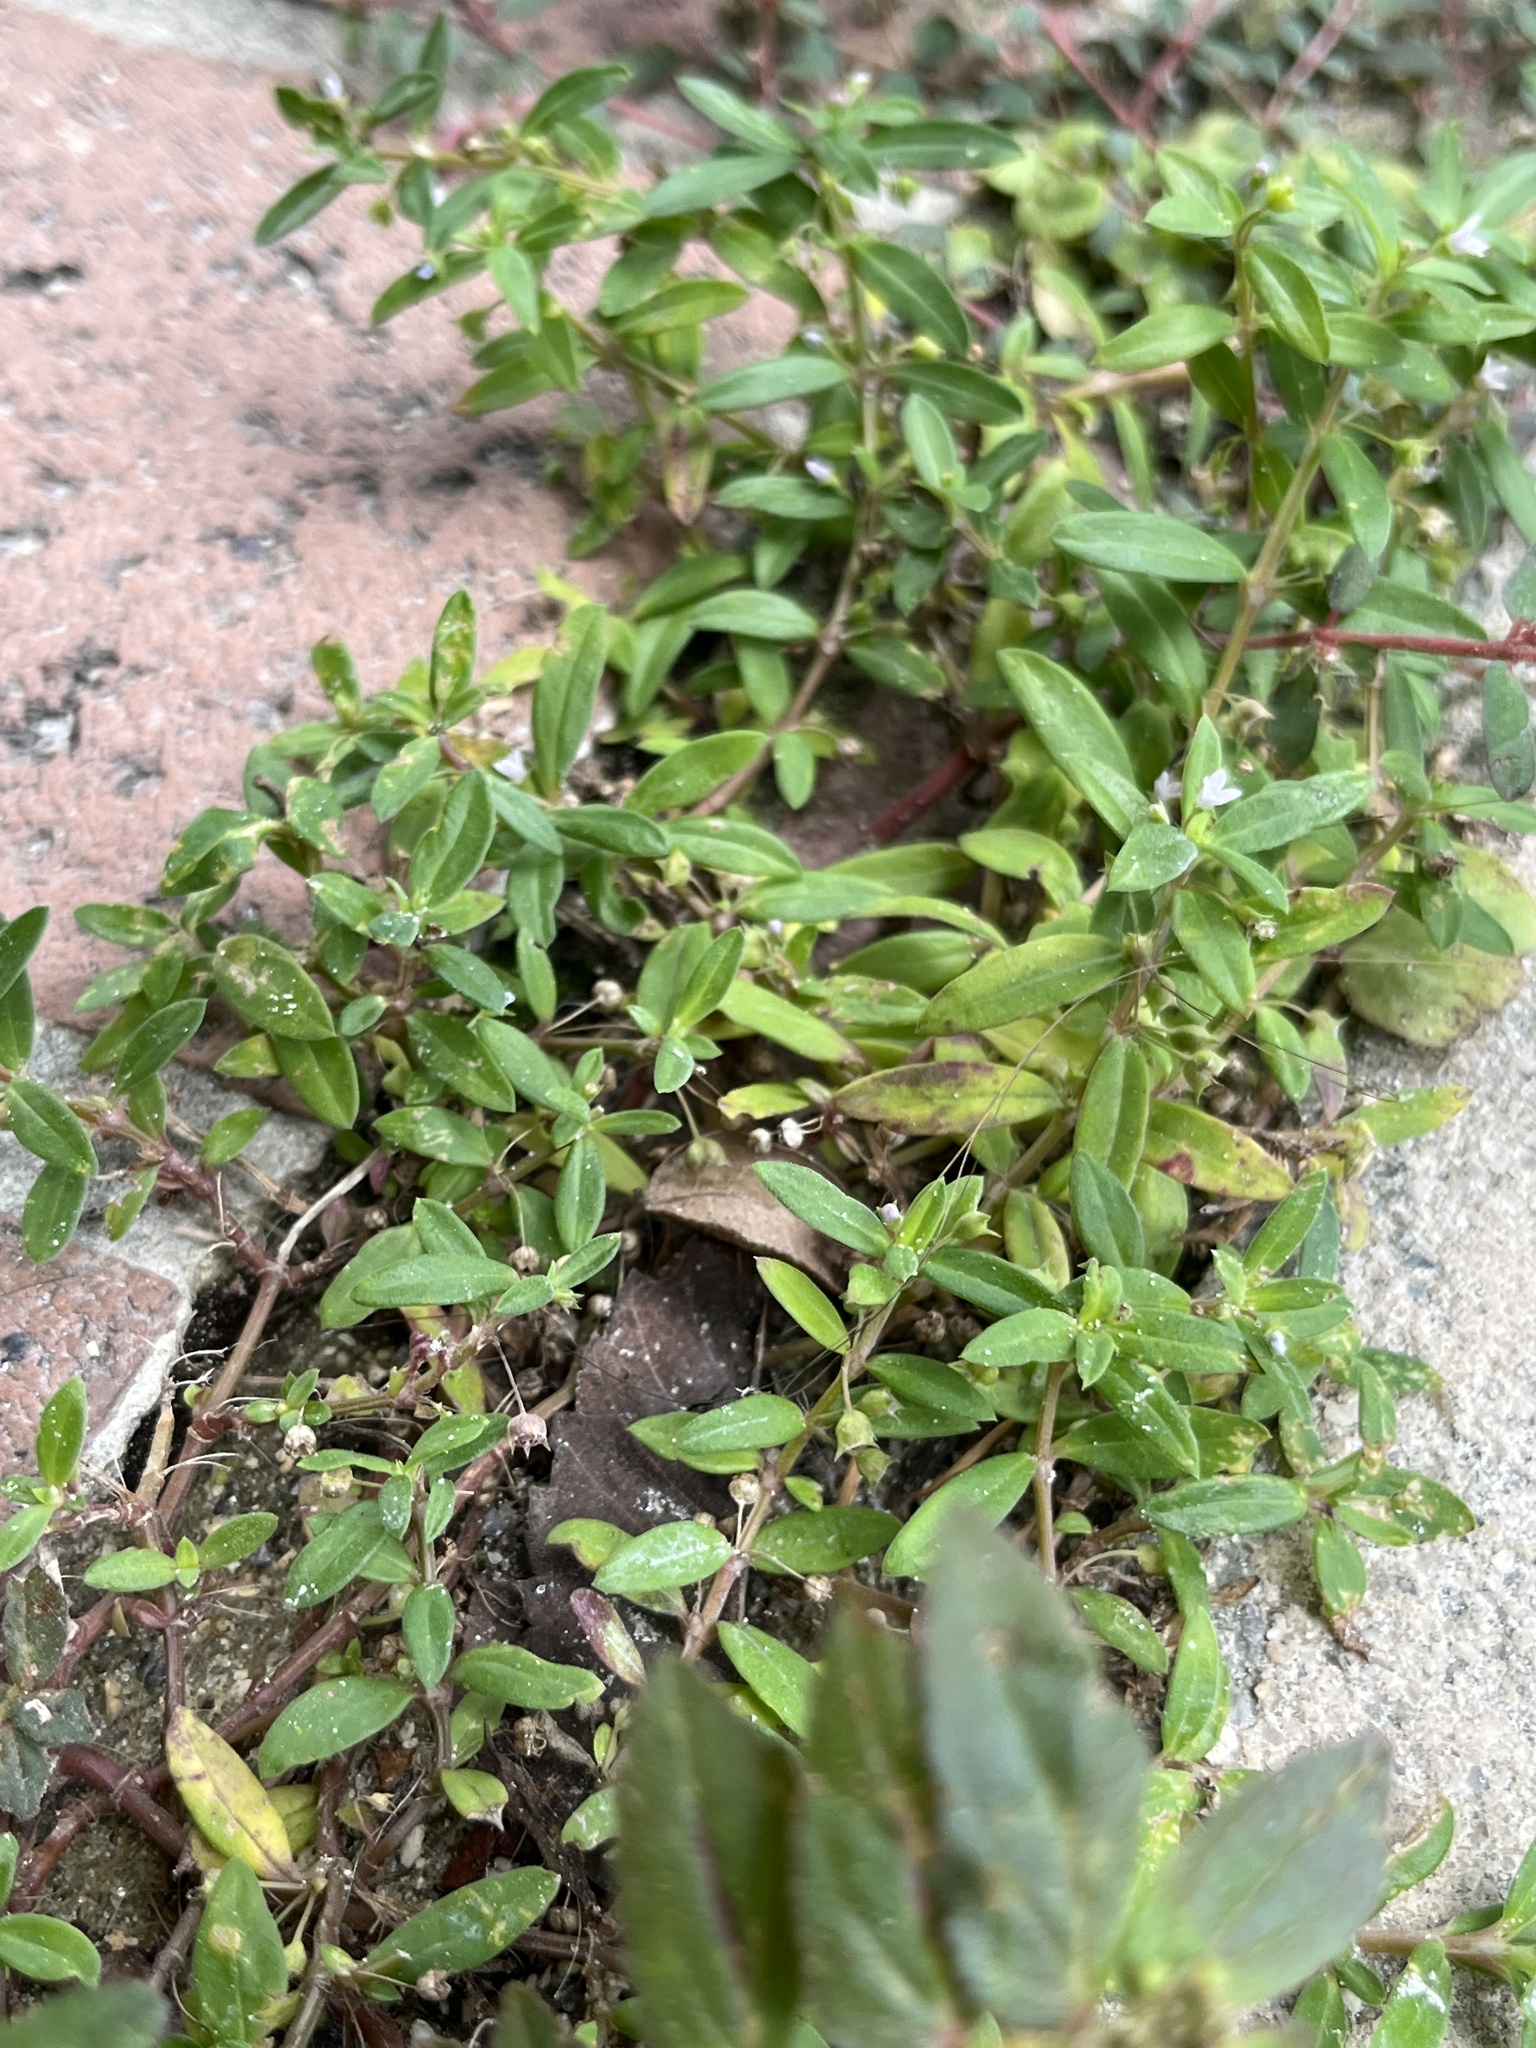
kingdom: Plantae
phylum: Tracheophyta
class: Magnoliopsida
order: Gentianales
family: Rubiaceae
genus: Oldenlandia
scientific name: Oldenlandia corymbosa
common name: Flat-top mille graines
